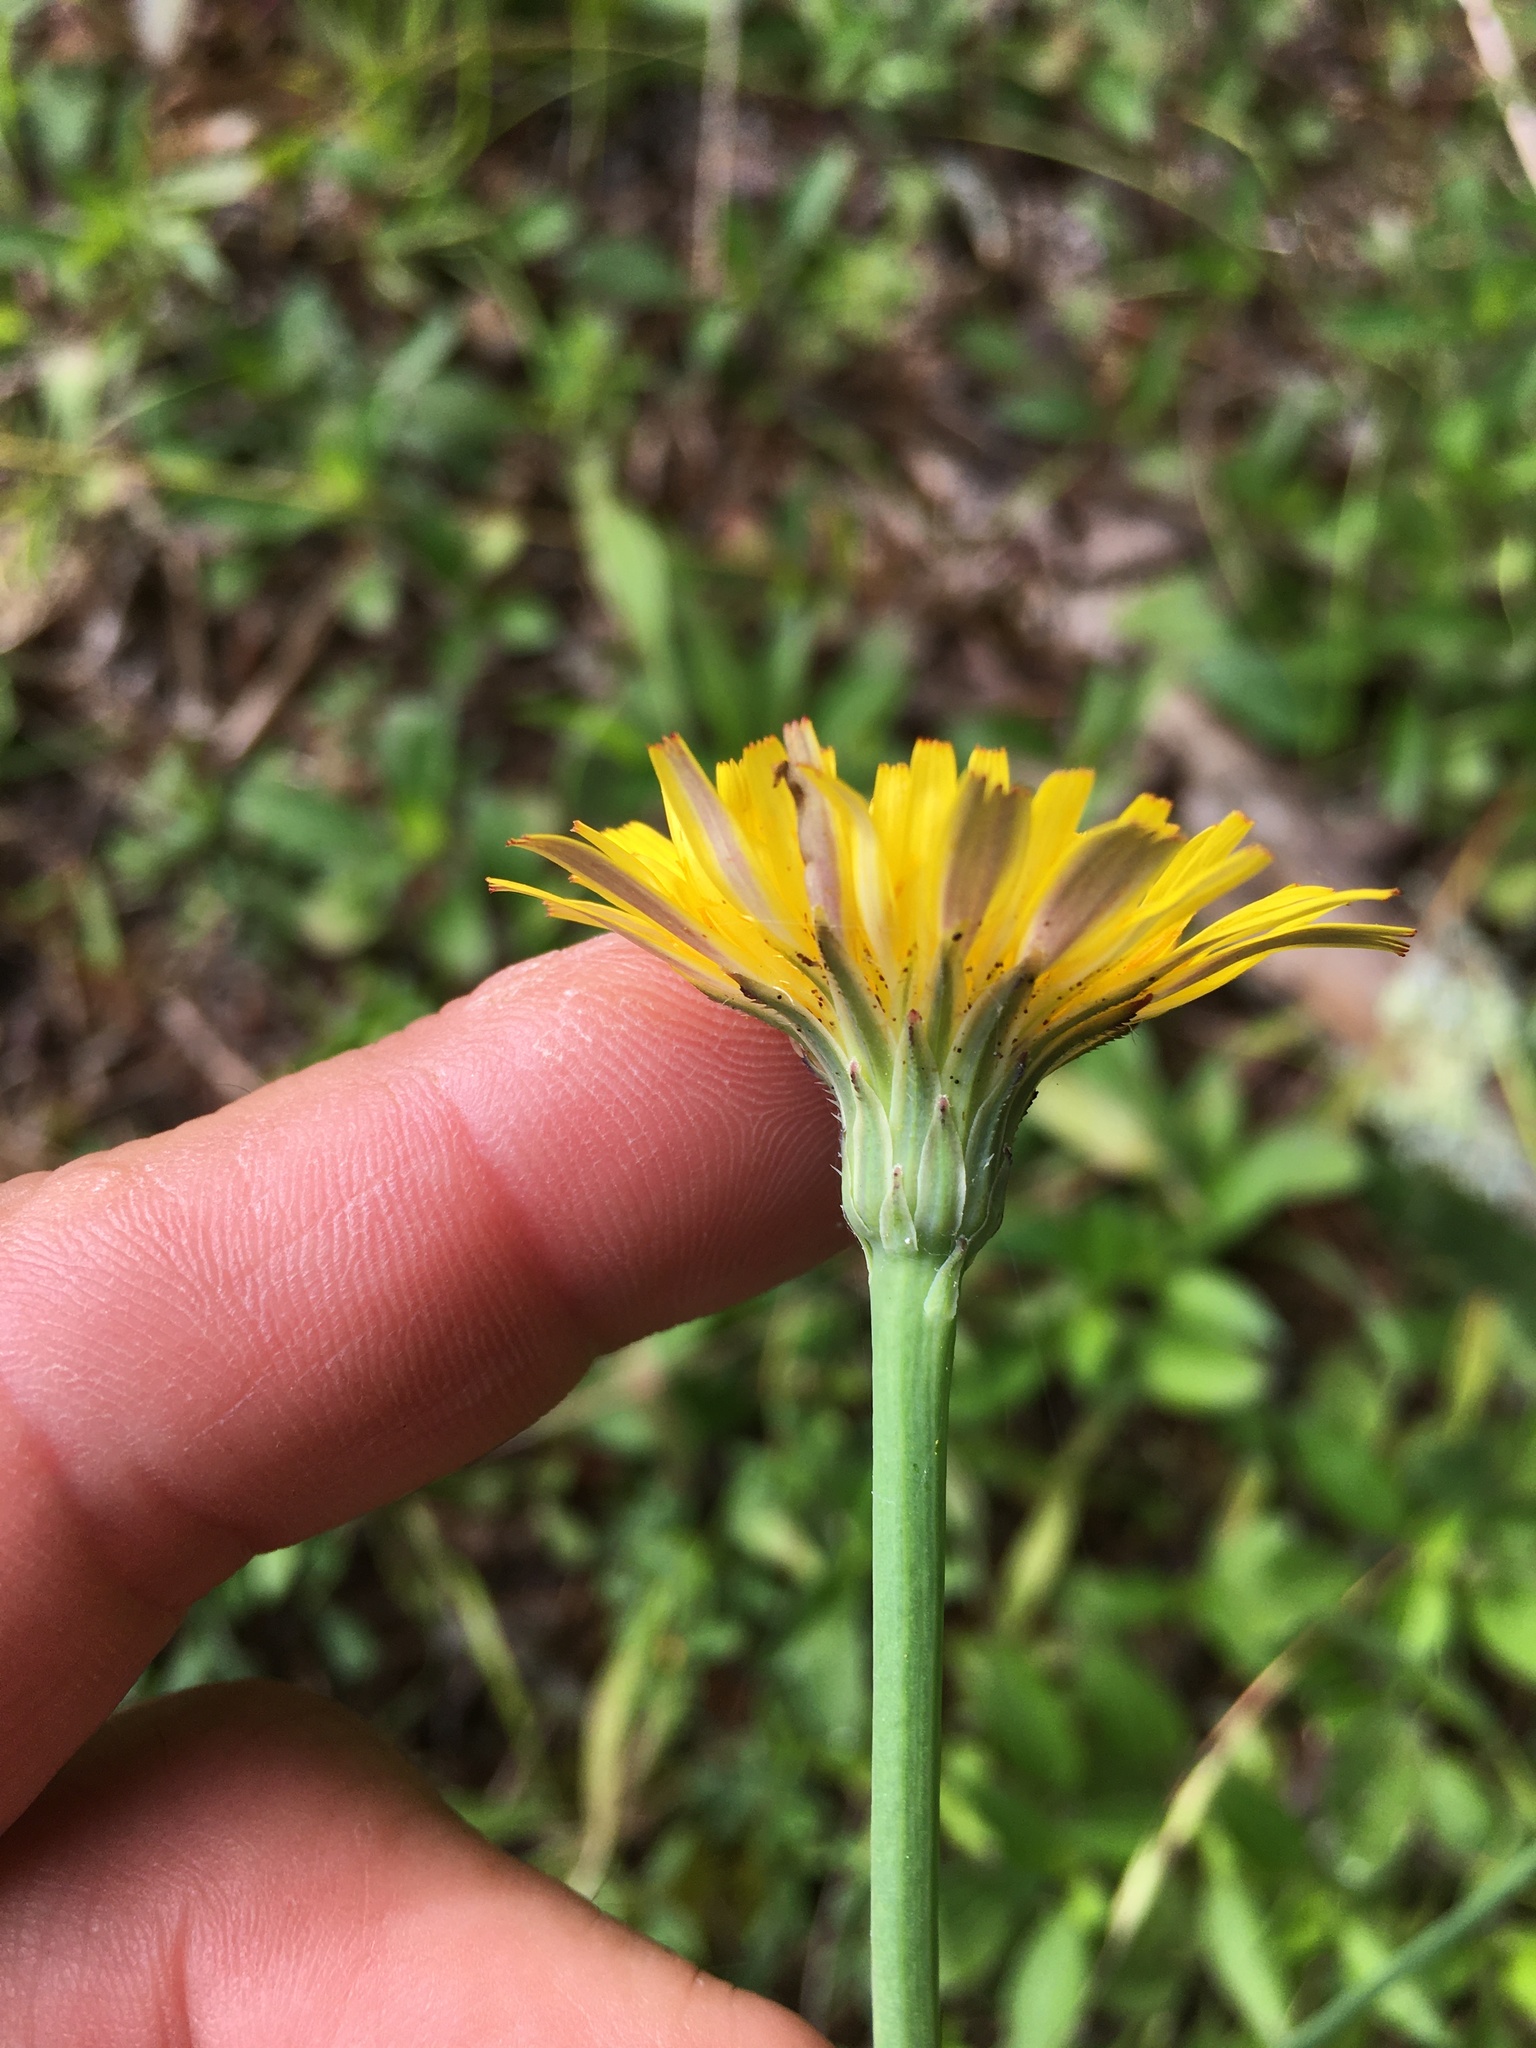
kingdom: Plantae
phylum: Tracheophyta
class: Magnoliopsida
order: Asterales
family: Asteraceae
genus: Hypochaeris
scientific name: Hypochaeris radicata
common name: Flatweed
